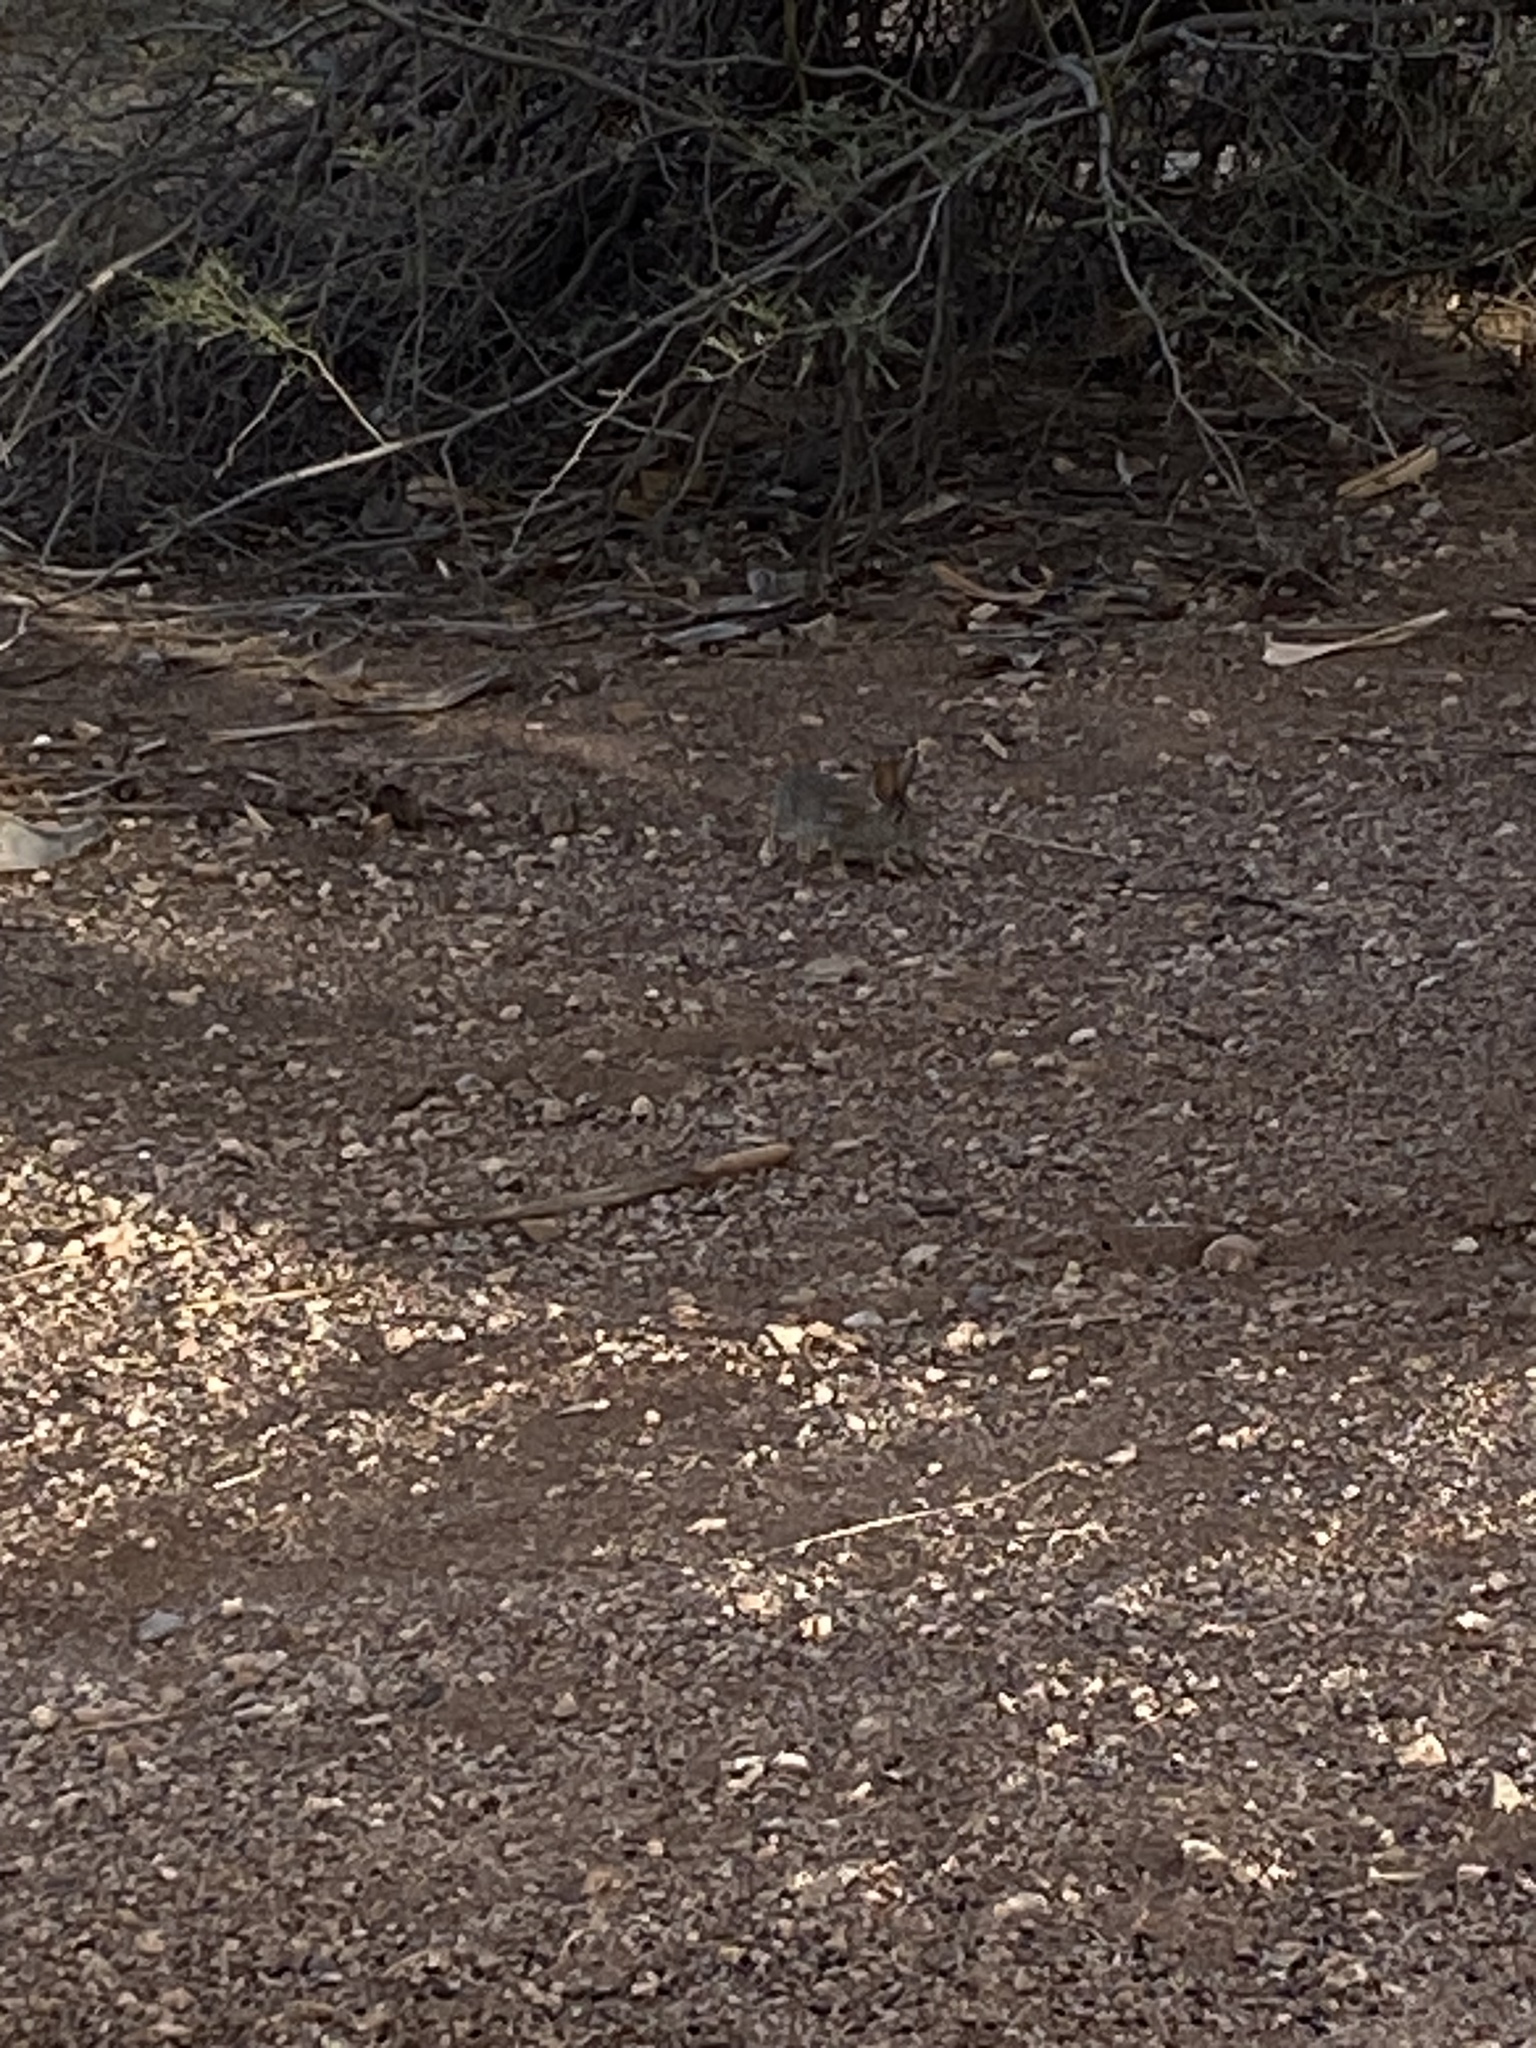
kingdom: Animalia
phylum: Chordata
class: Mammalia
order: Lagomorpha
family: Leporidae
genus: Sylvilagus
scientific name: Sylvilagus audubonii
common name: Desert cottontail
